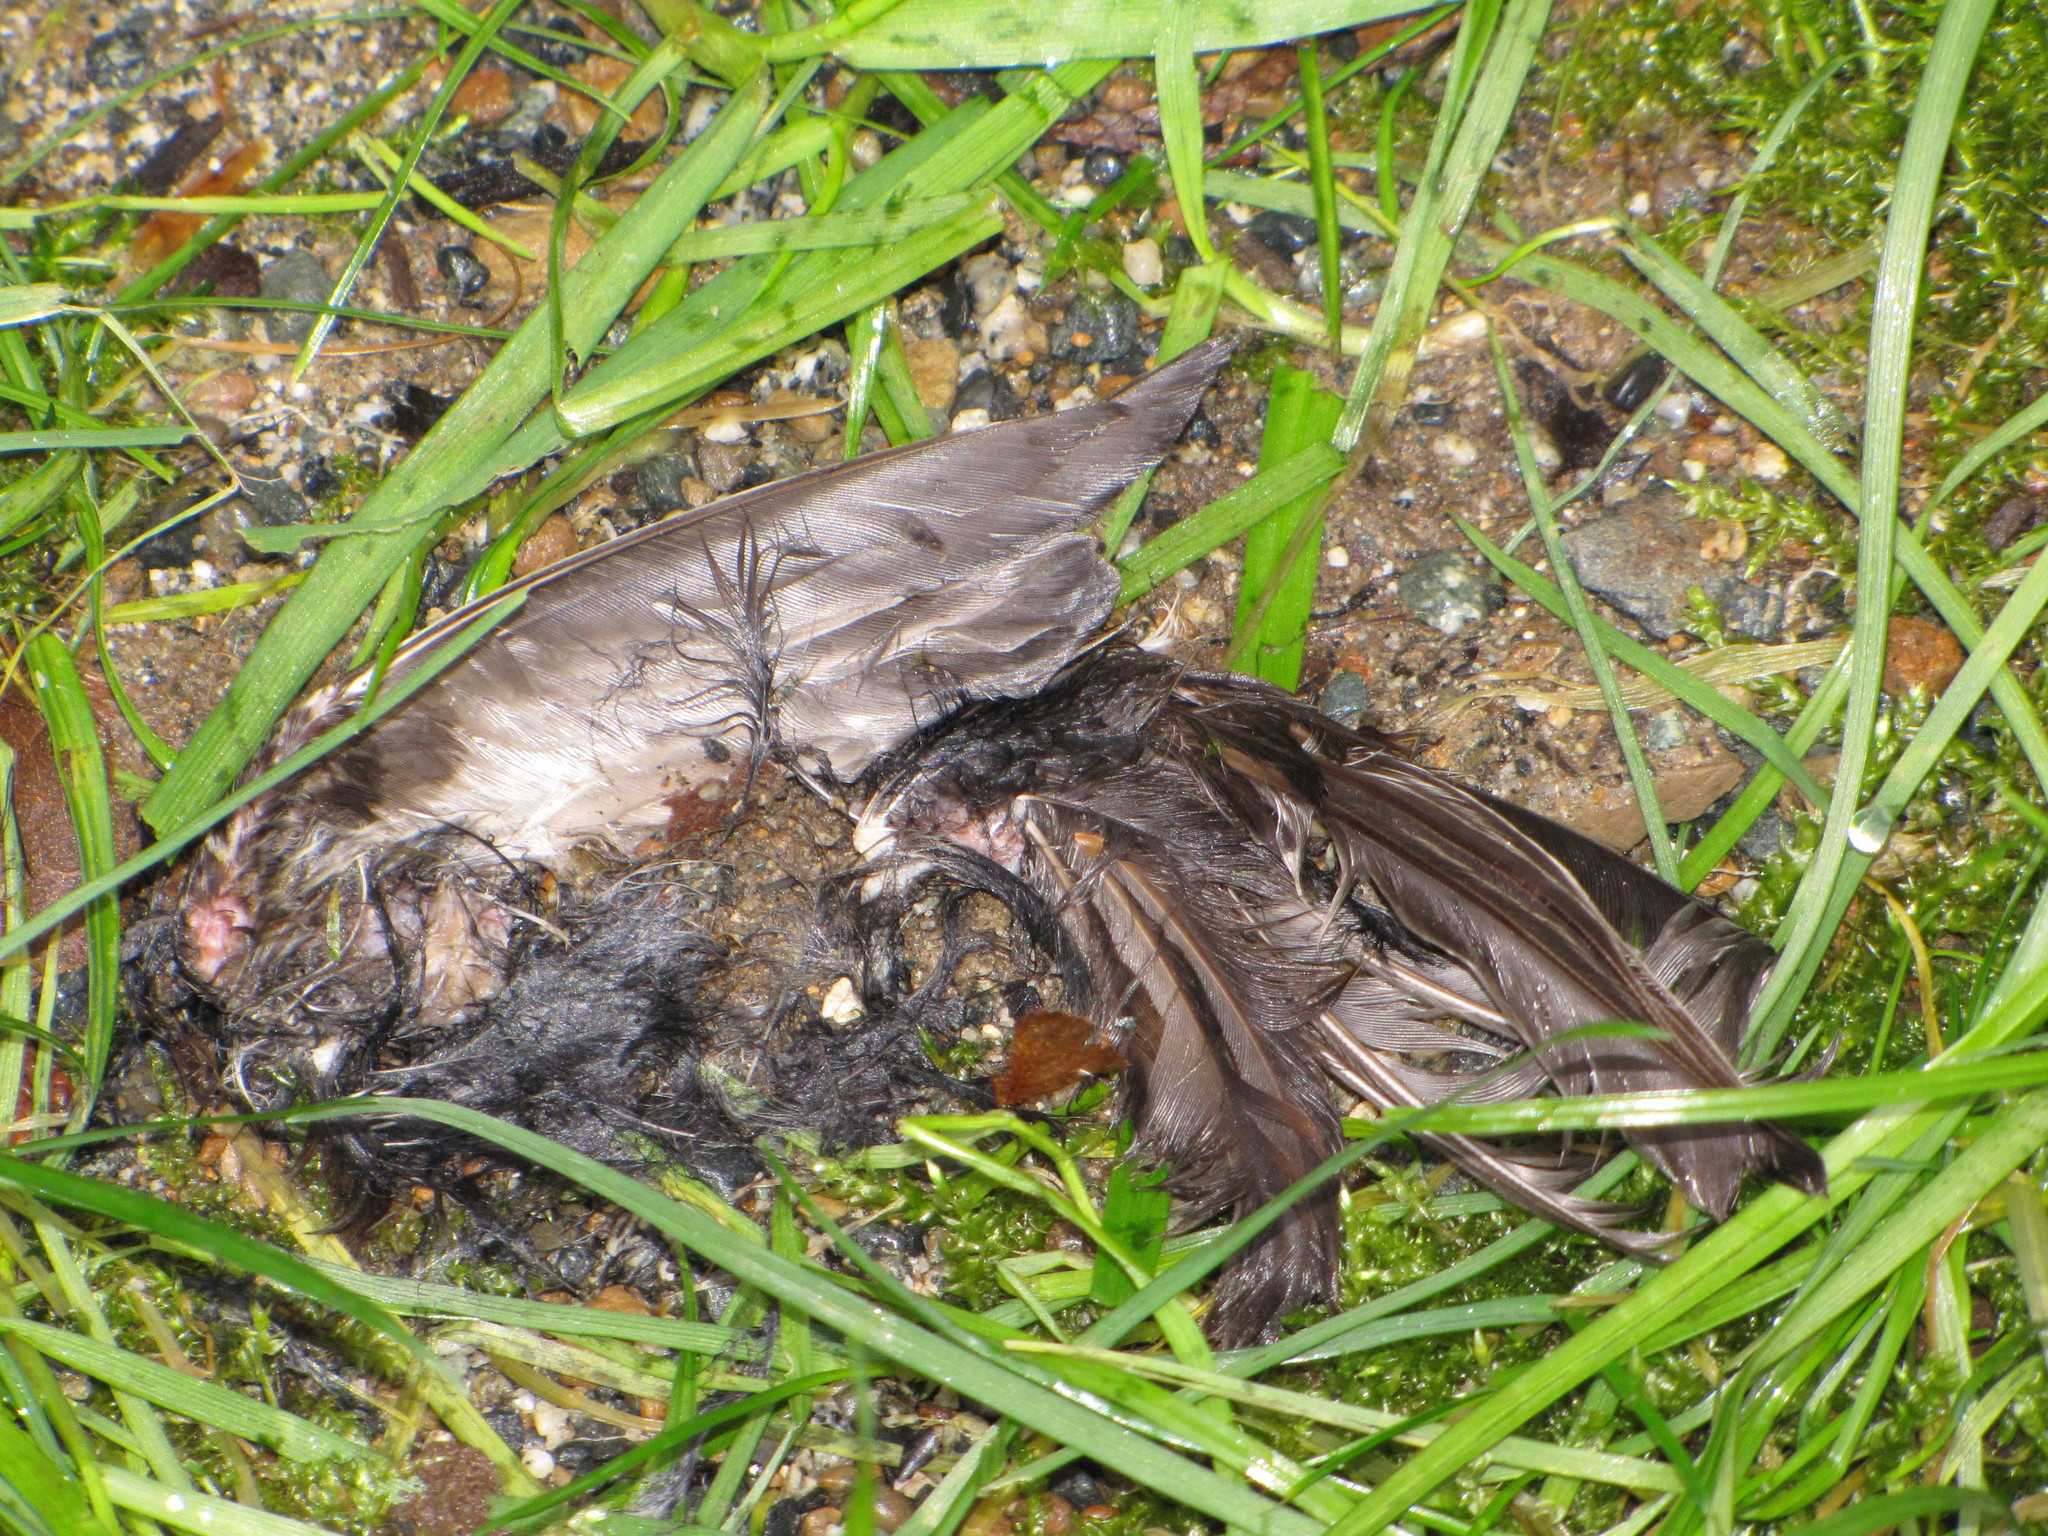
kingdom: Animalia
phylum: Chordata
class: Aves
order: Passeriformes
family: Passerellidae
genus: Junco
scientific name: Junco hyemalis
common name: Dark-eyed junco
